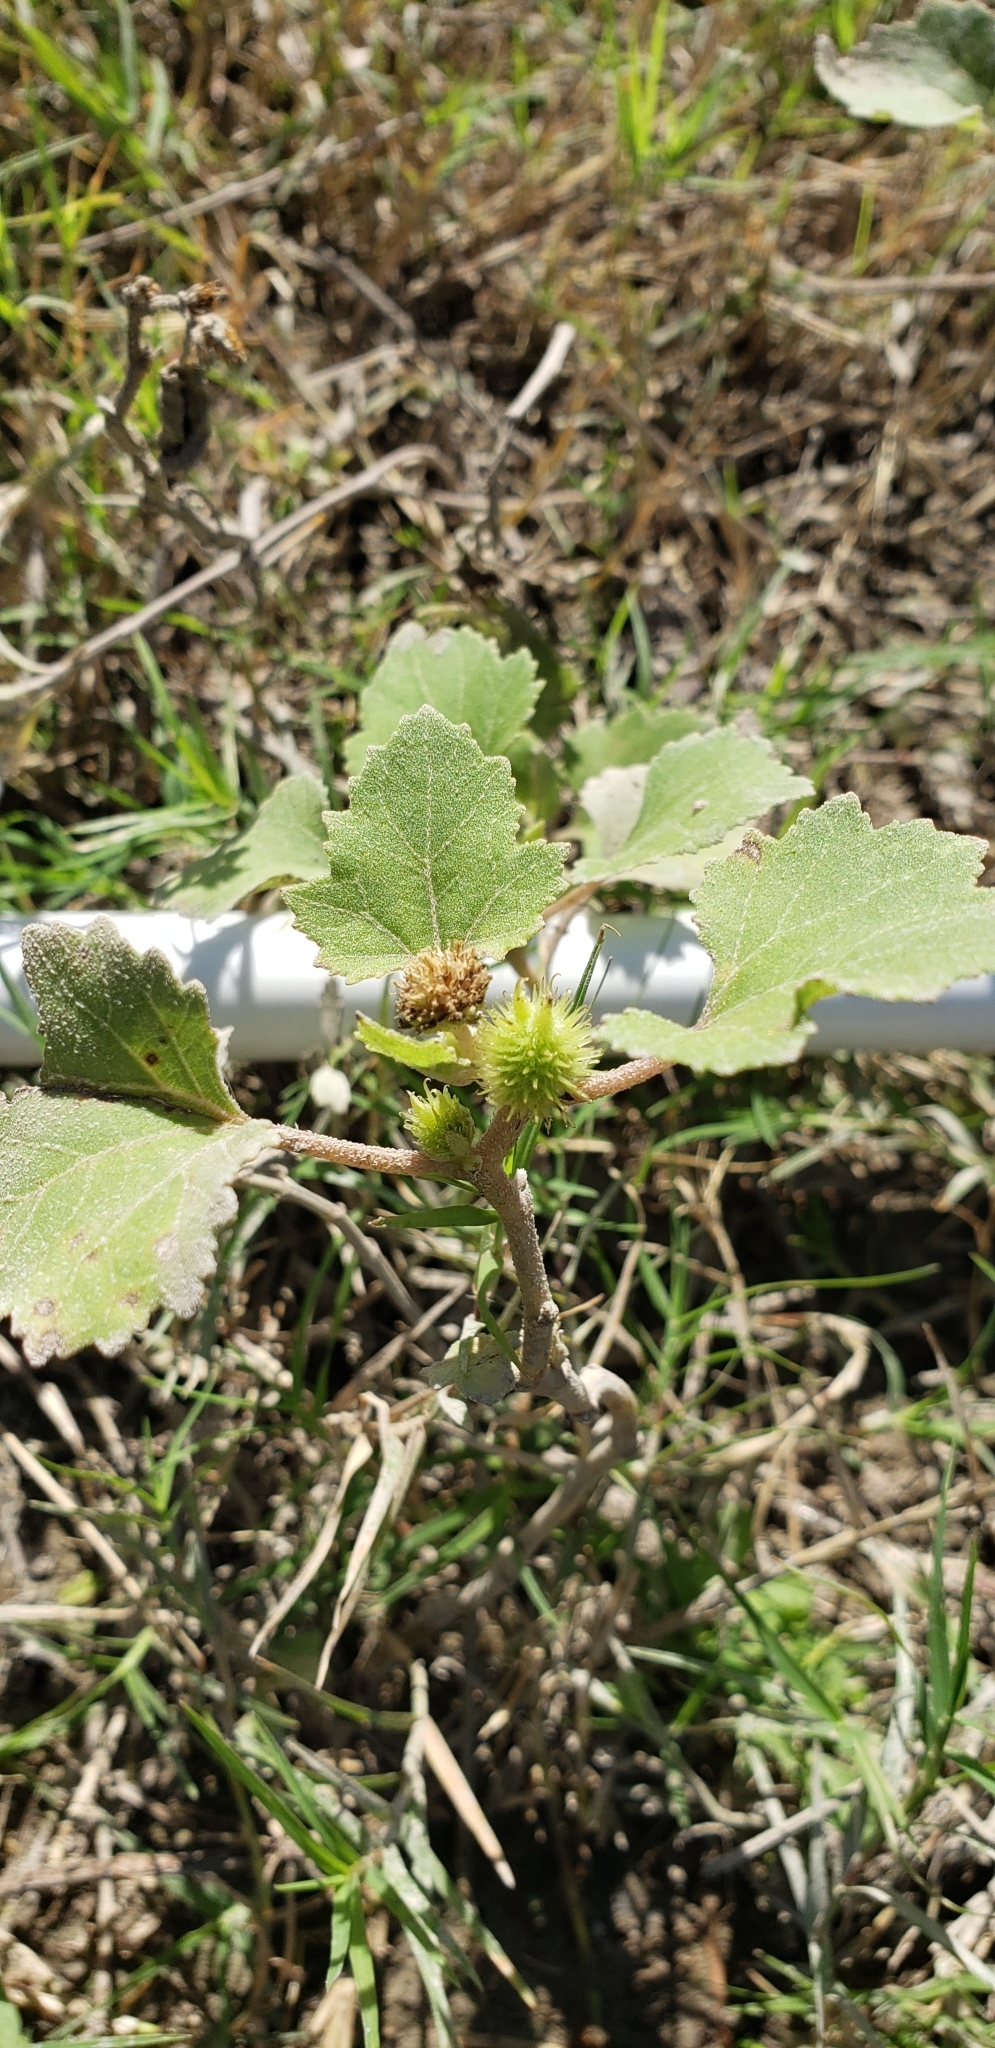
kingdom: Plantae
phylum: Tracheophyta
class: Magnoliopsida
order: Asterales
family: Asteraceae
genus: Xanthium
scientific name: Xanthium strumarium
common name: Rough cocklebur
